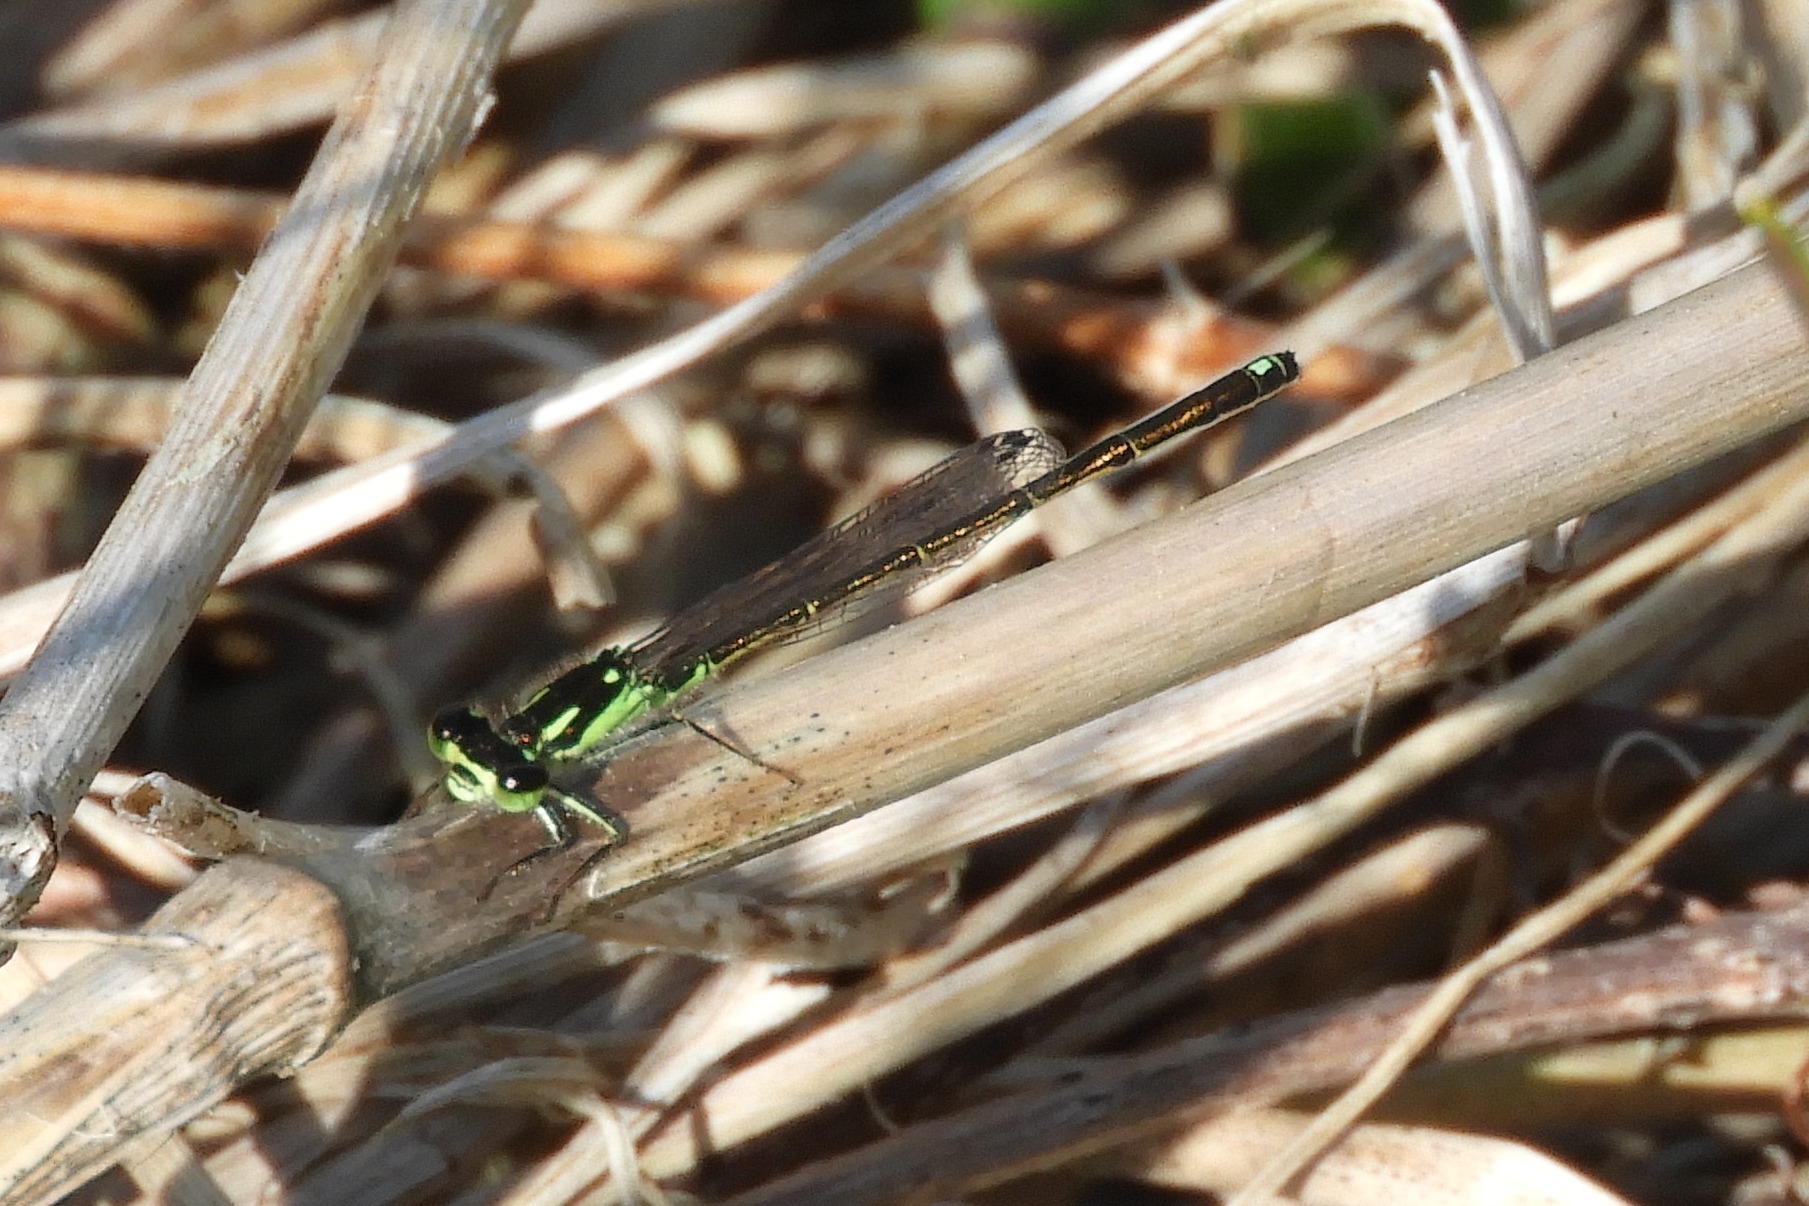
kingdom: Animalia
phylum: Arthropoda
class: Insecta
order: Odonata
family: Coenagrionidae
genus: Ischnura
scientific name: Ischnura posita
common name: Fragile forktail
